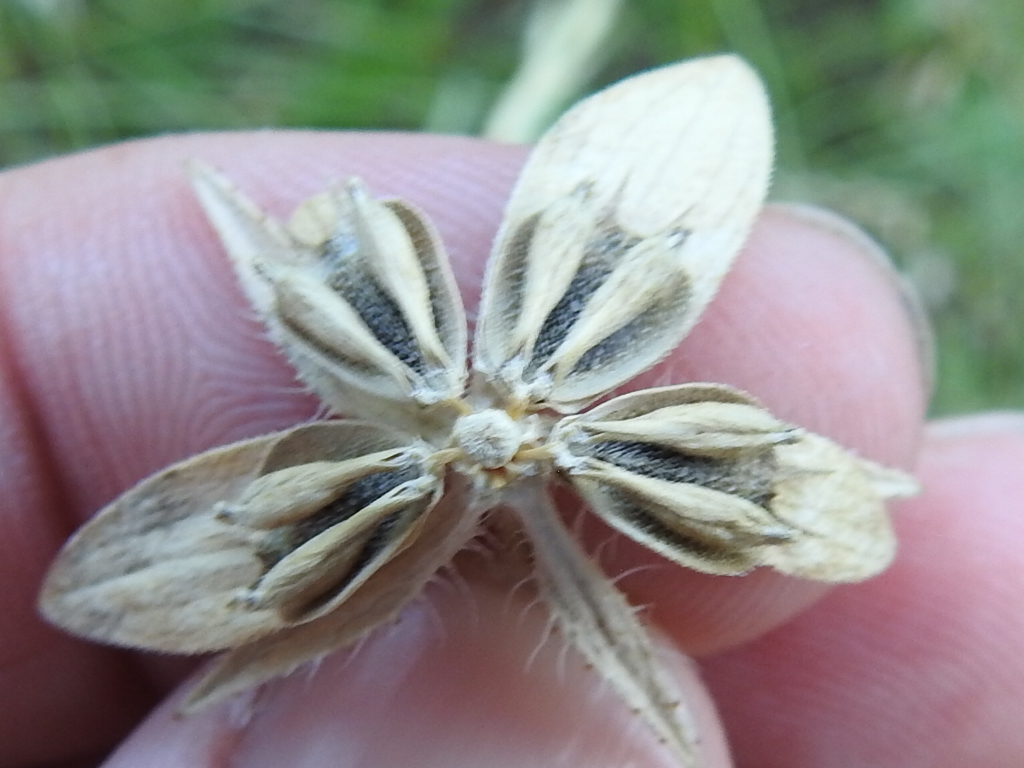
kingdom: Plantae
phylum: Tracheophyta
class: Magnoliopsida
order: Asterales
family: Asteraceae
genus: Lindheimera
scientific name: Lindheimera texana
